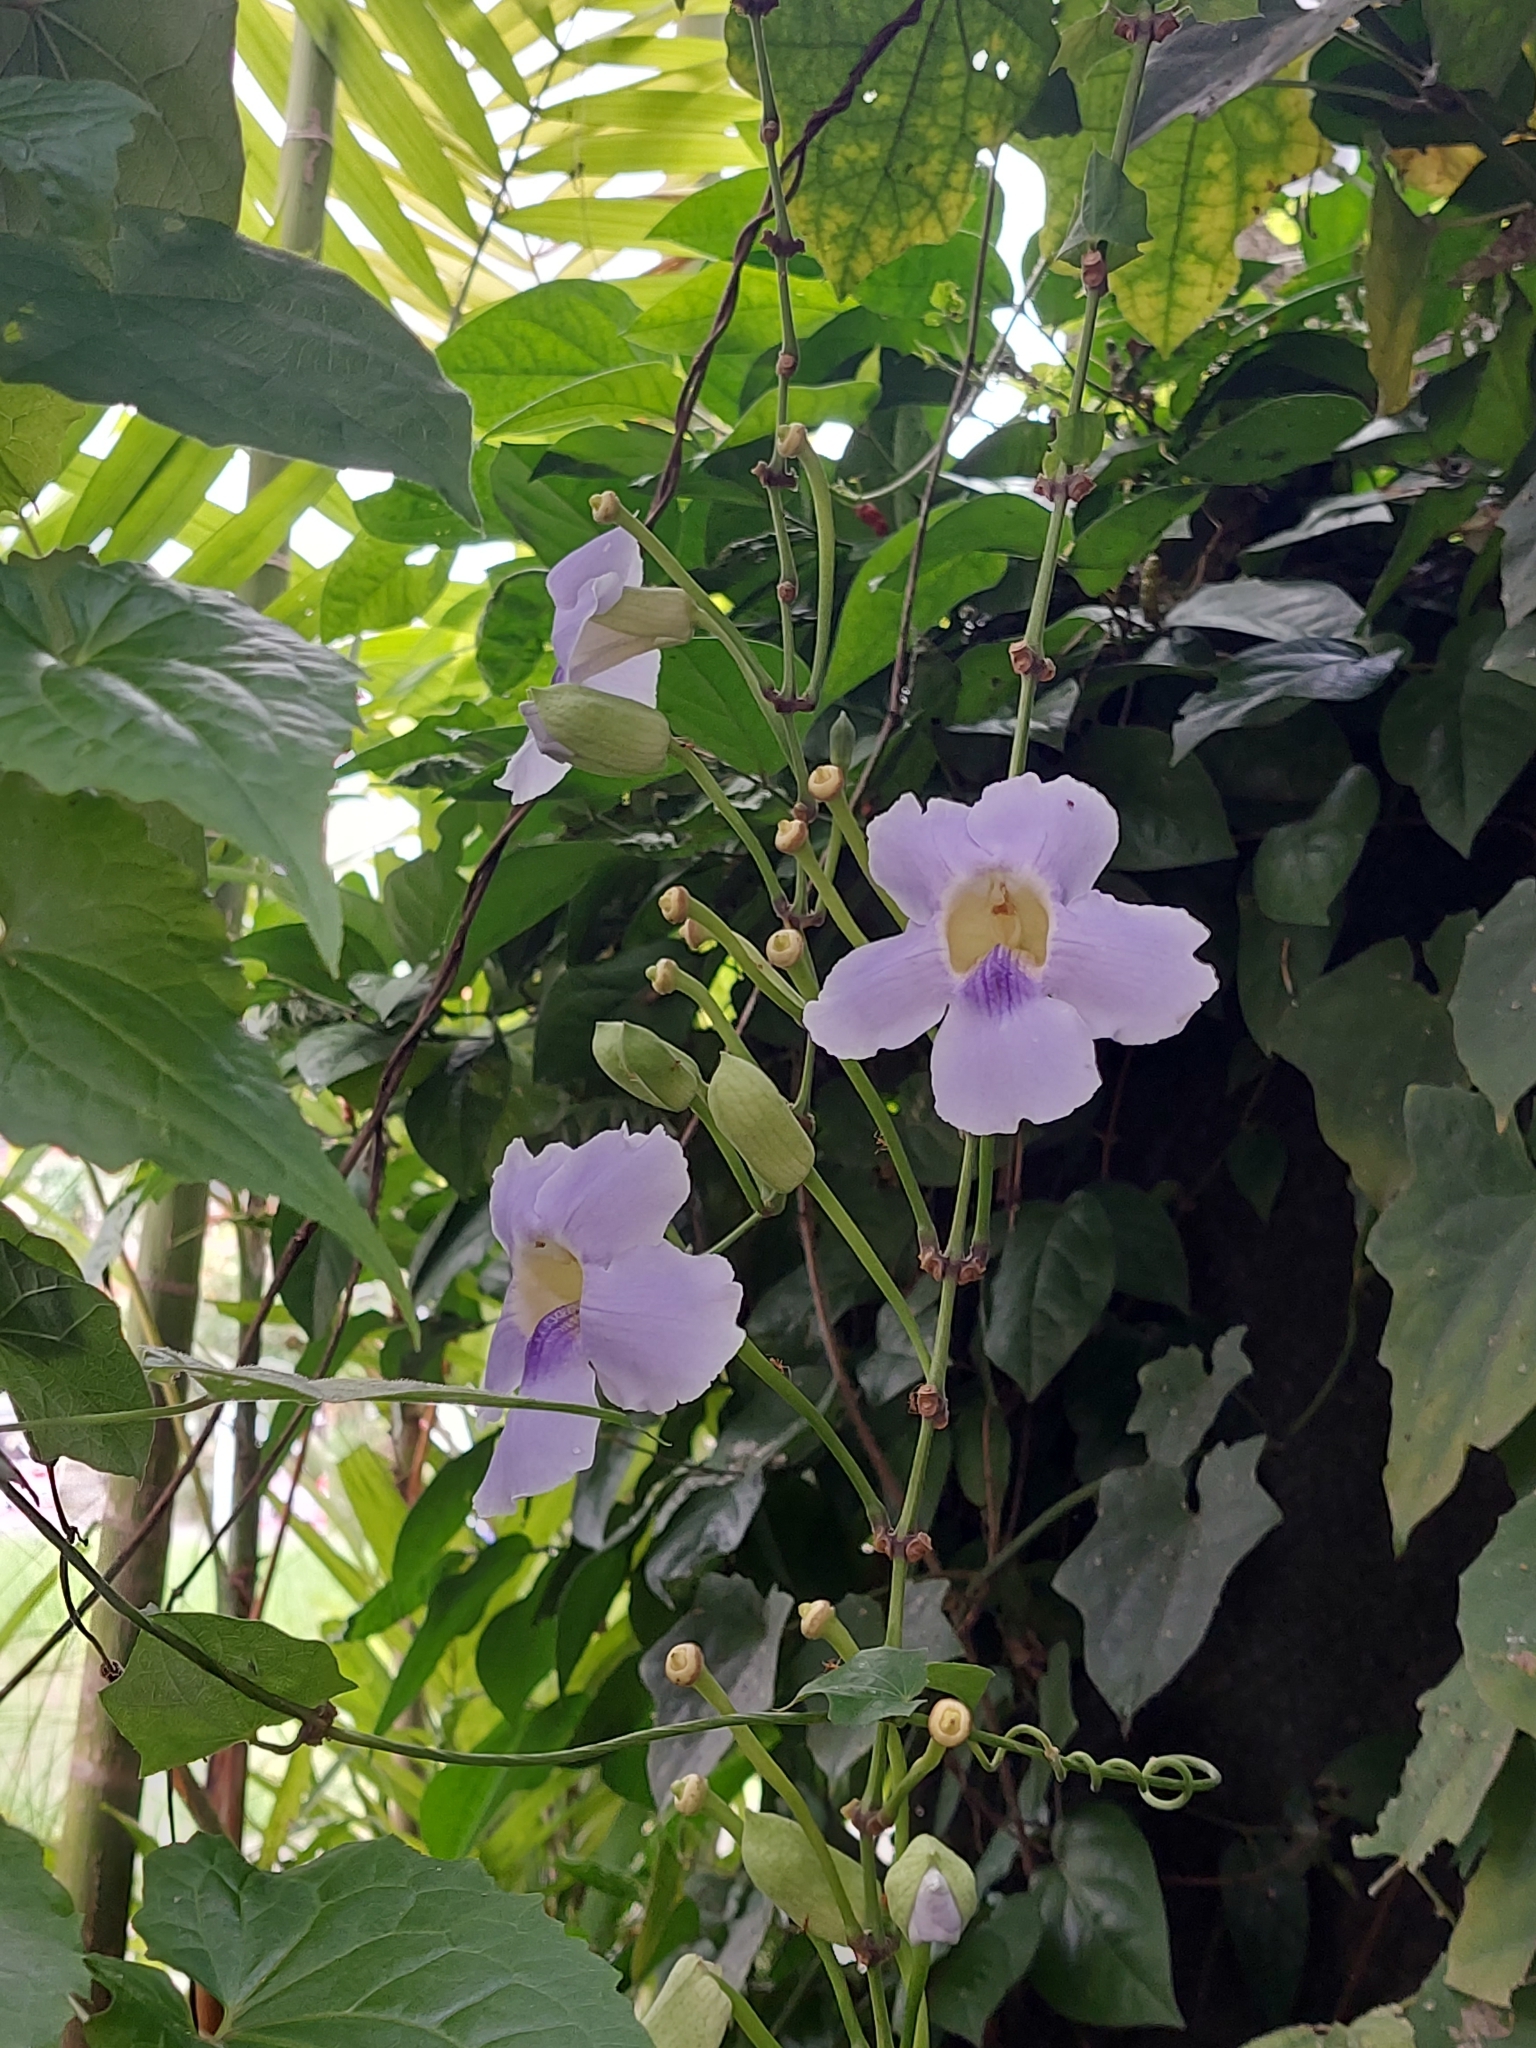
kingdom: Plantae
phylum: Tracheophyta
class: Magnoliopsida
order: Lamiales
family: Acanthaceae
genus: Thunbergia
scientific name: Thunbergia grandiflora
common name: Bengal trumpet
